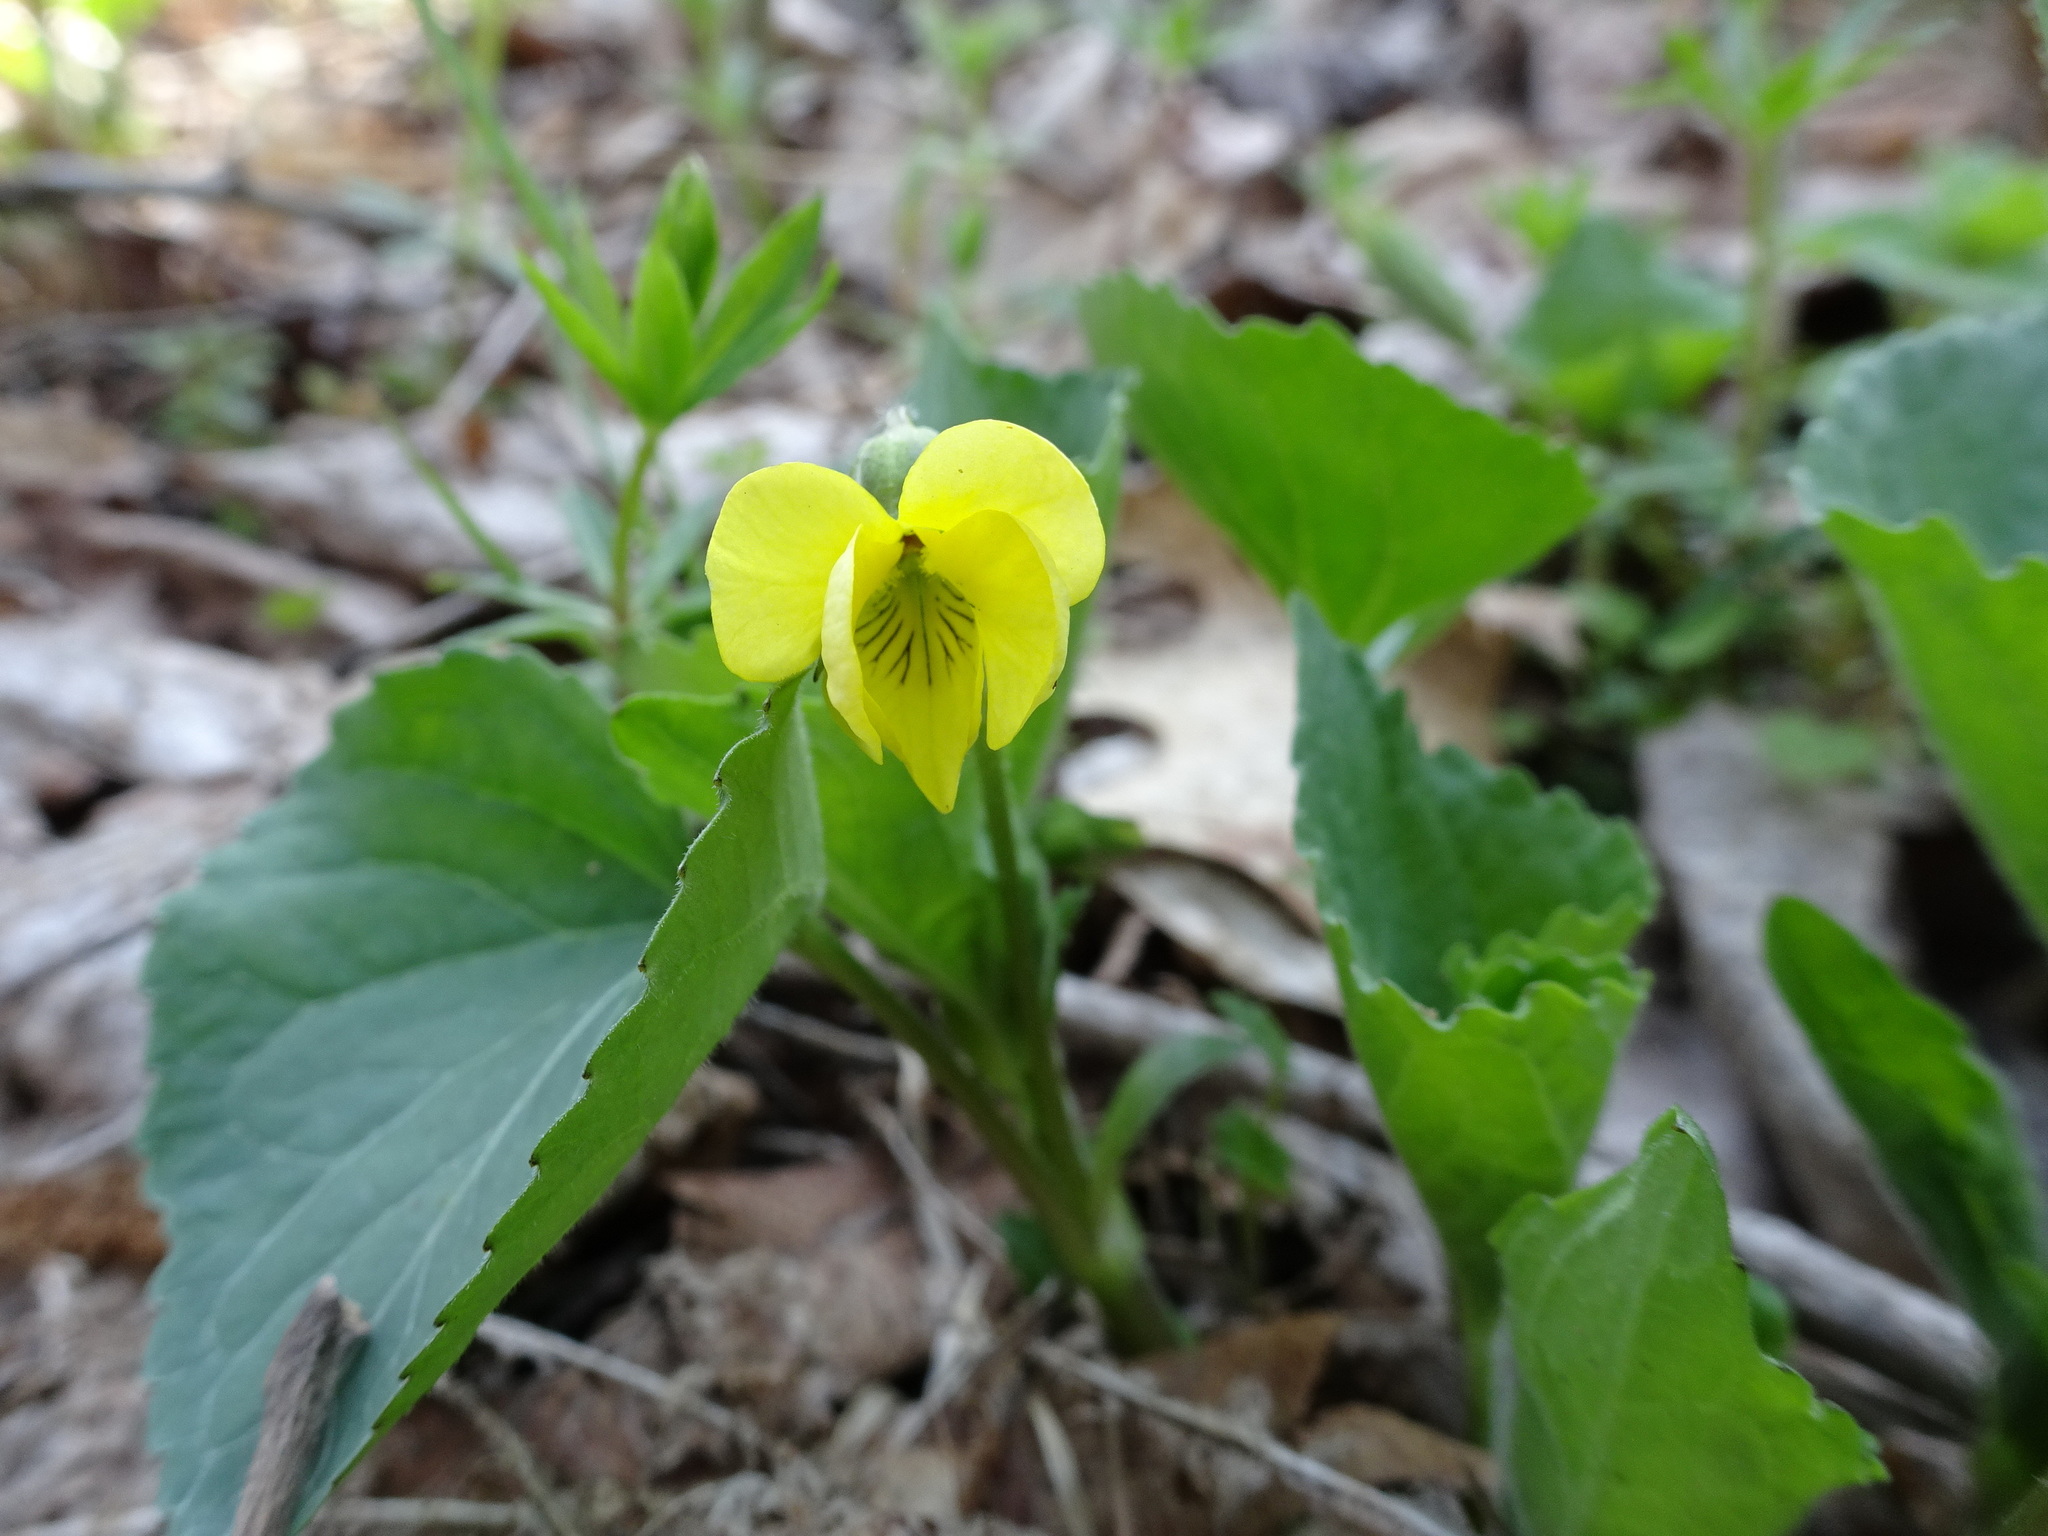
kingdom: Plantae
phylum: Tracheophyta
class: Magnoliopsida
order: Malpighiales
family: Violaceae
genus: Viola
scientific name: Viola eriocarpa
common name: Smooth yellow violet
